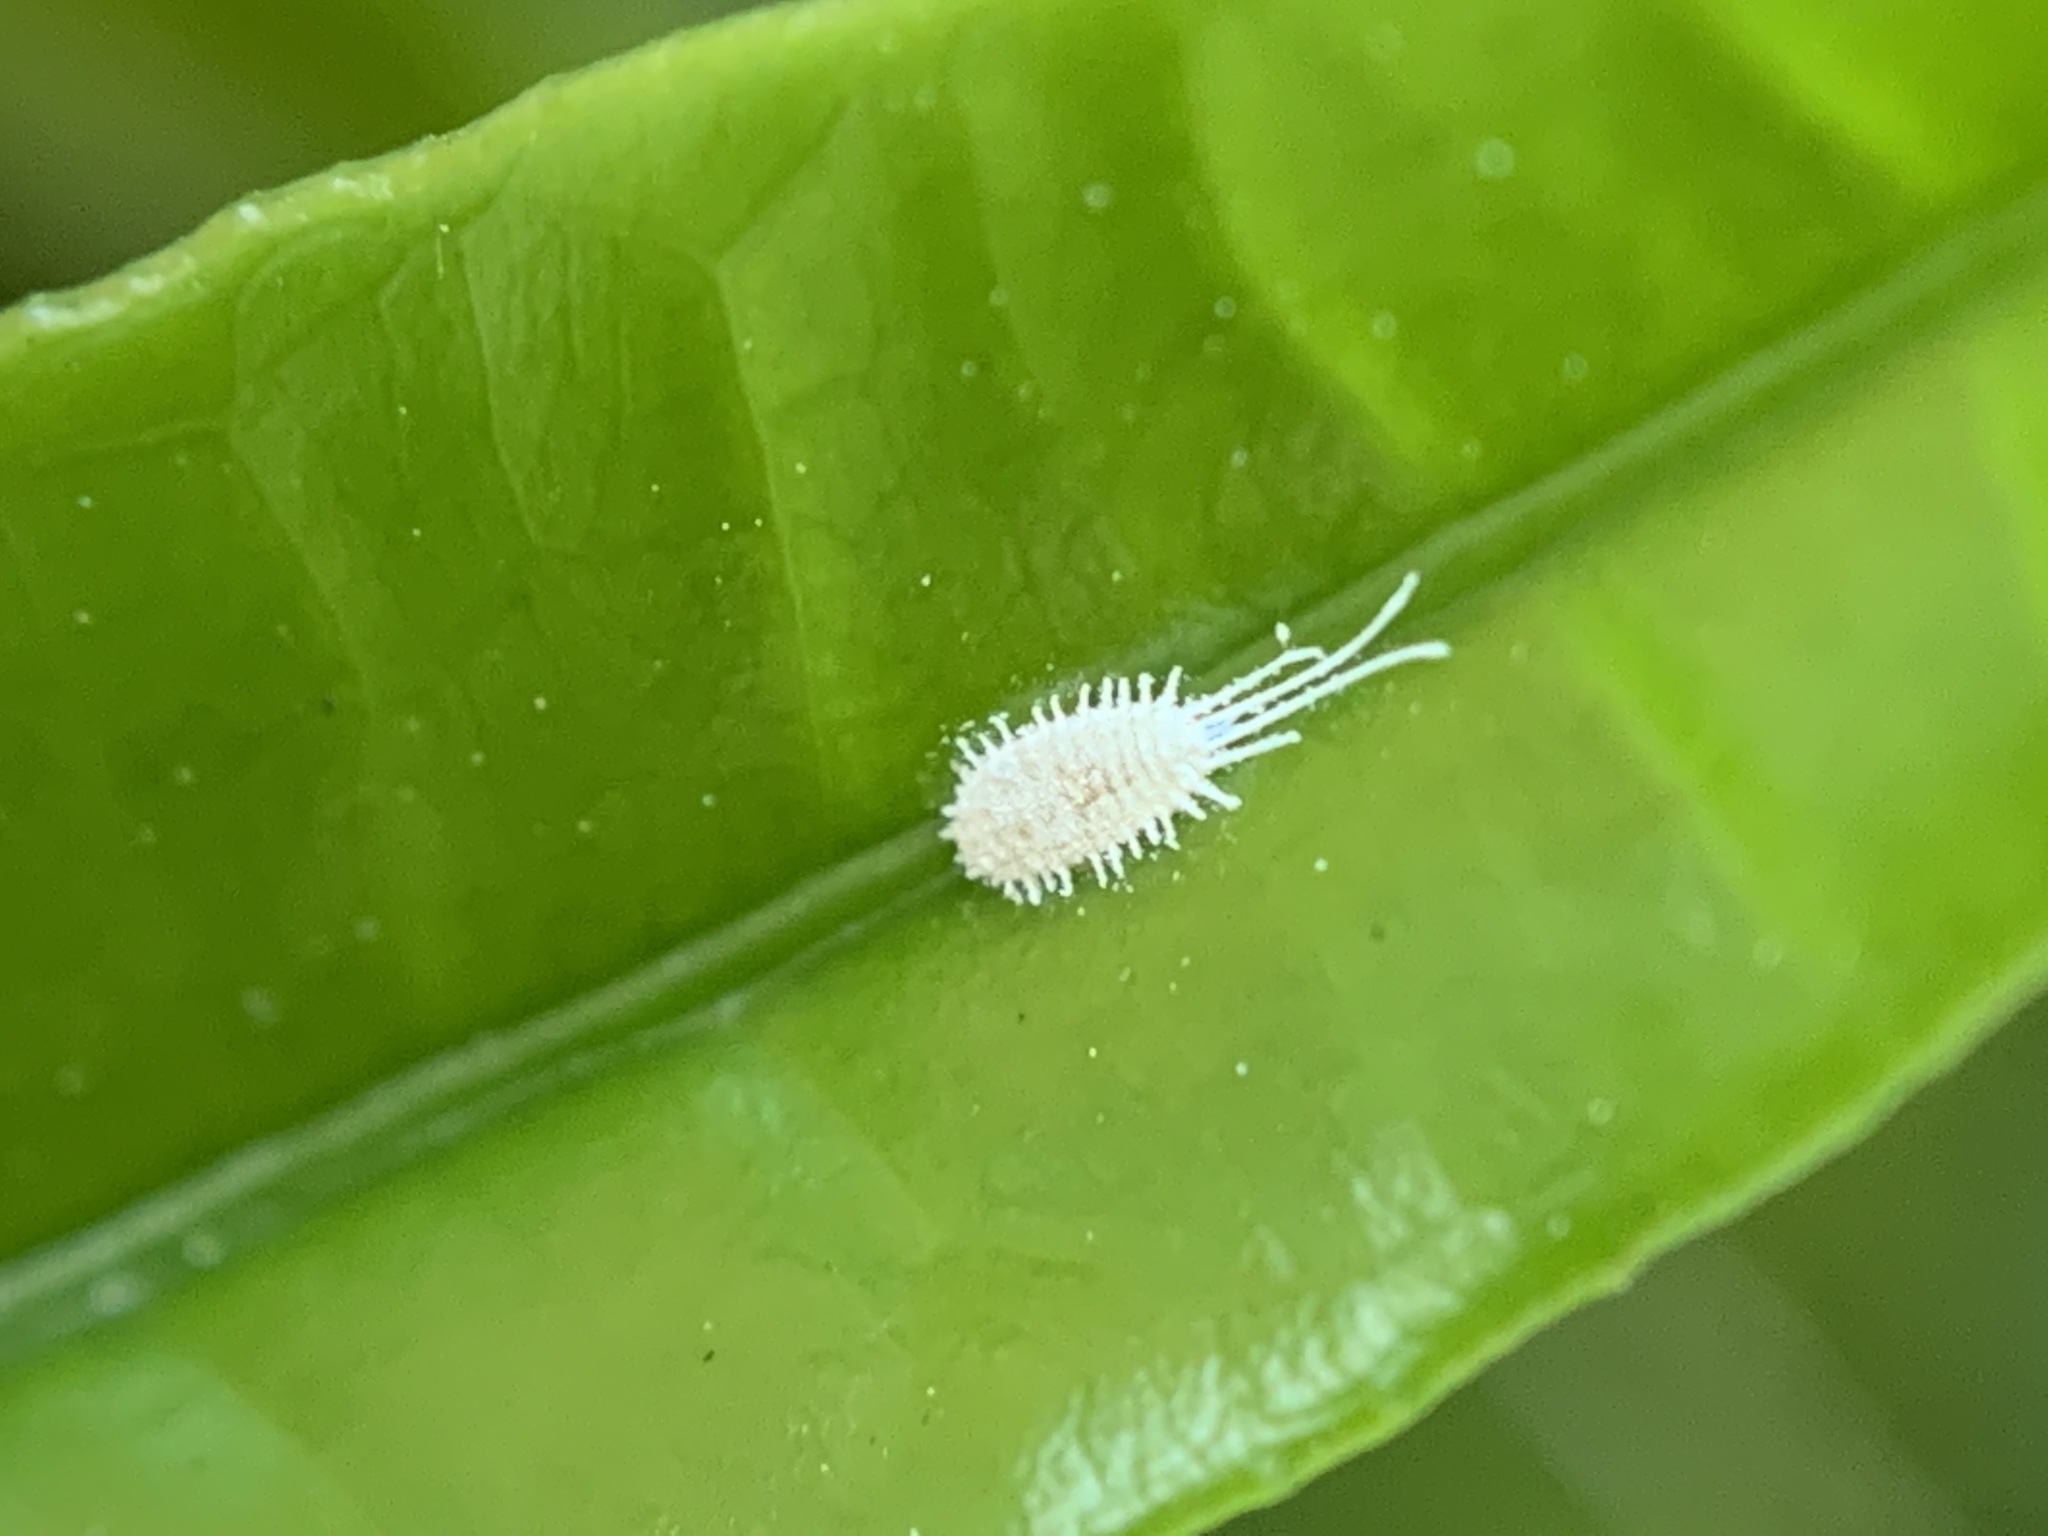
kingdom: Animalia
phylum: Arthropoda
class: Insecta
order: Hemiptera
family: Pseudococcidae
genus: Pseudococcus
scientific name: Pseudococcus longispinus
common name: Long-tailed mealybug
